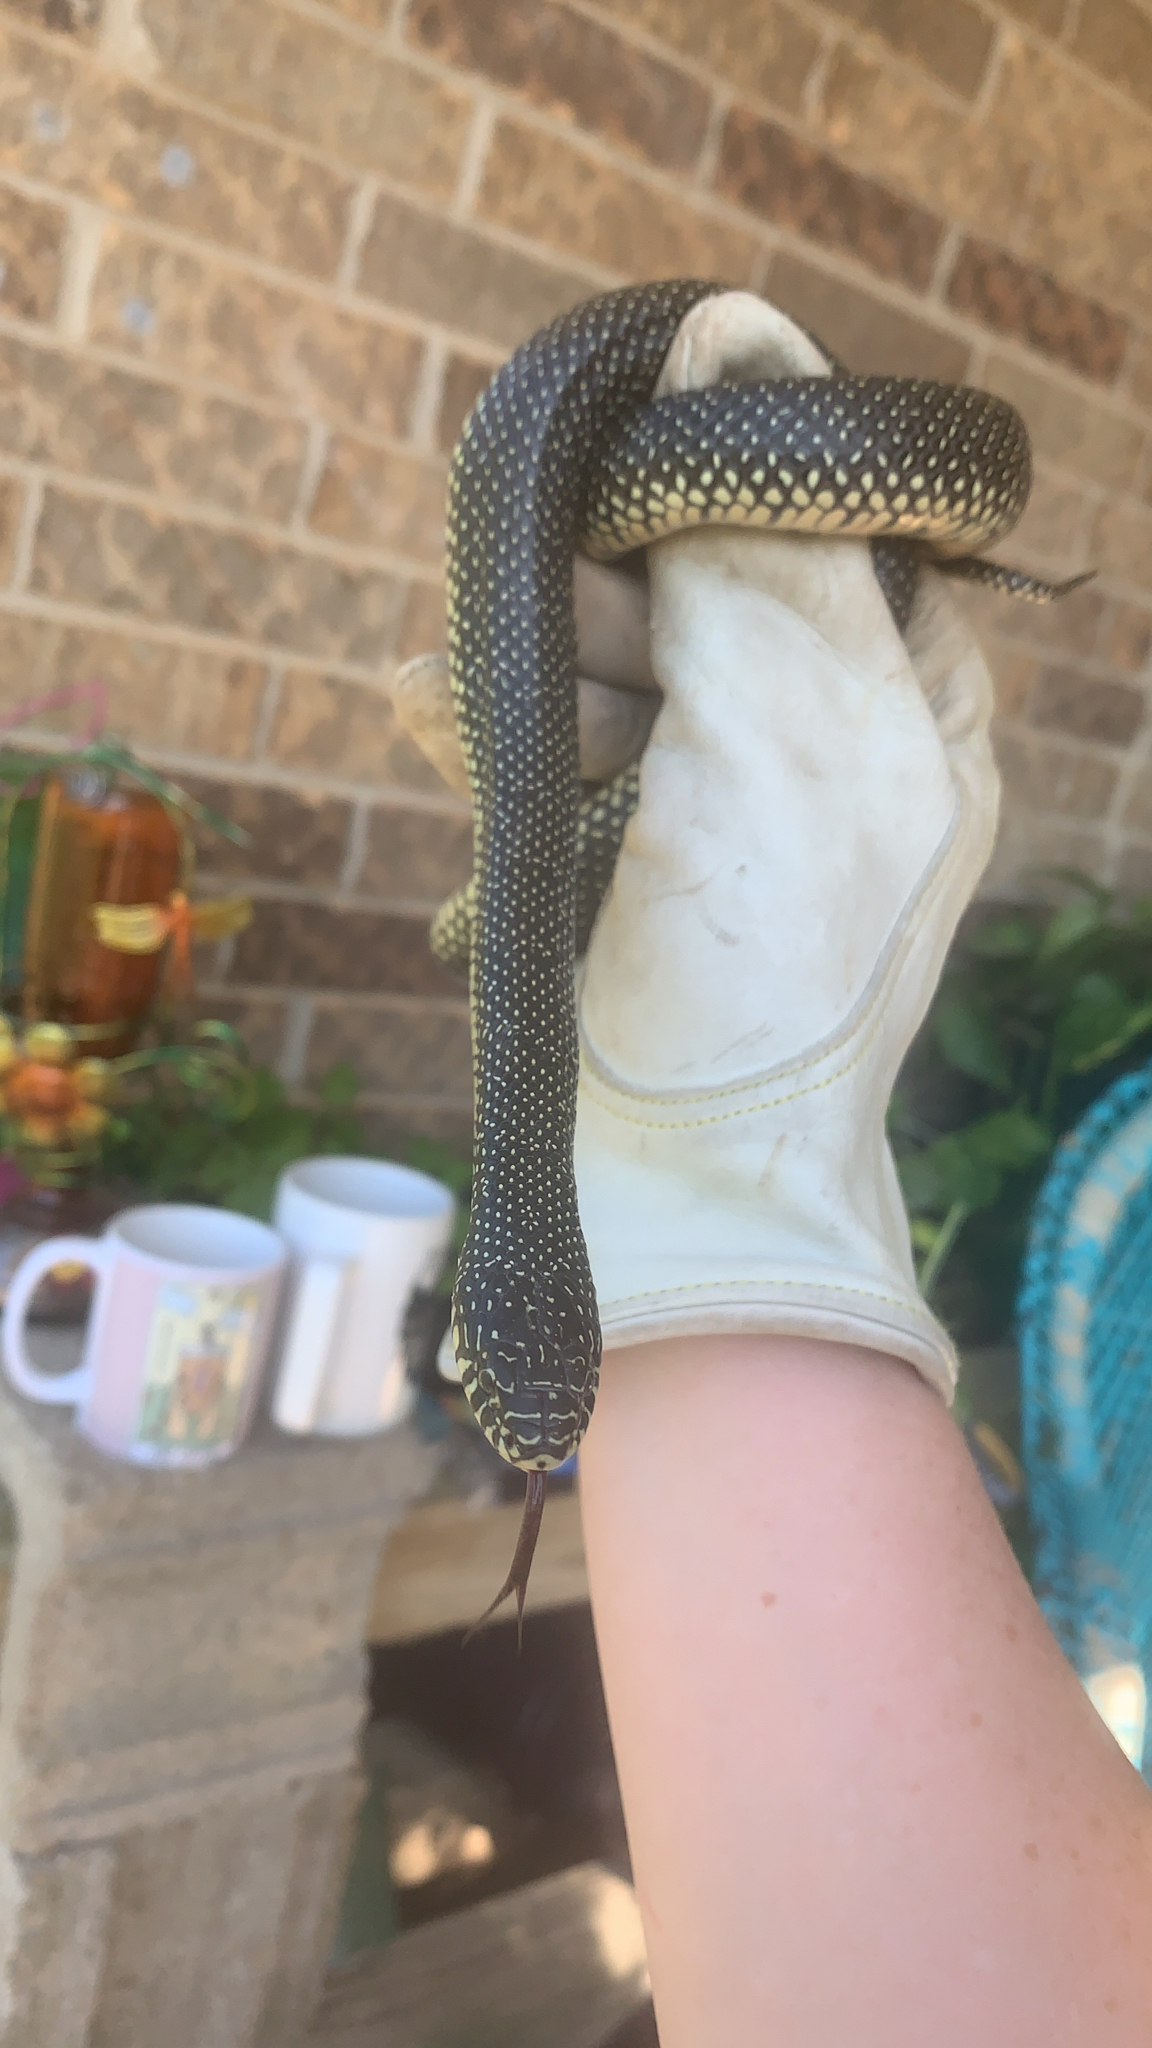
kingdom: Animalia
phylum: Chordata
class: Squamata
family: Colubridae
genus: Lampropeltis
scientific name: Lampropeltis holbrooki
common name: Speckled kingsnake
